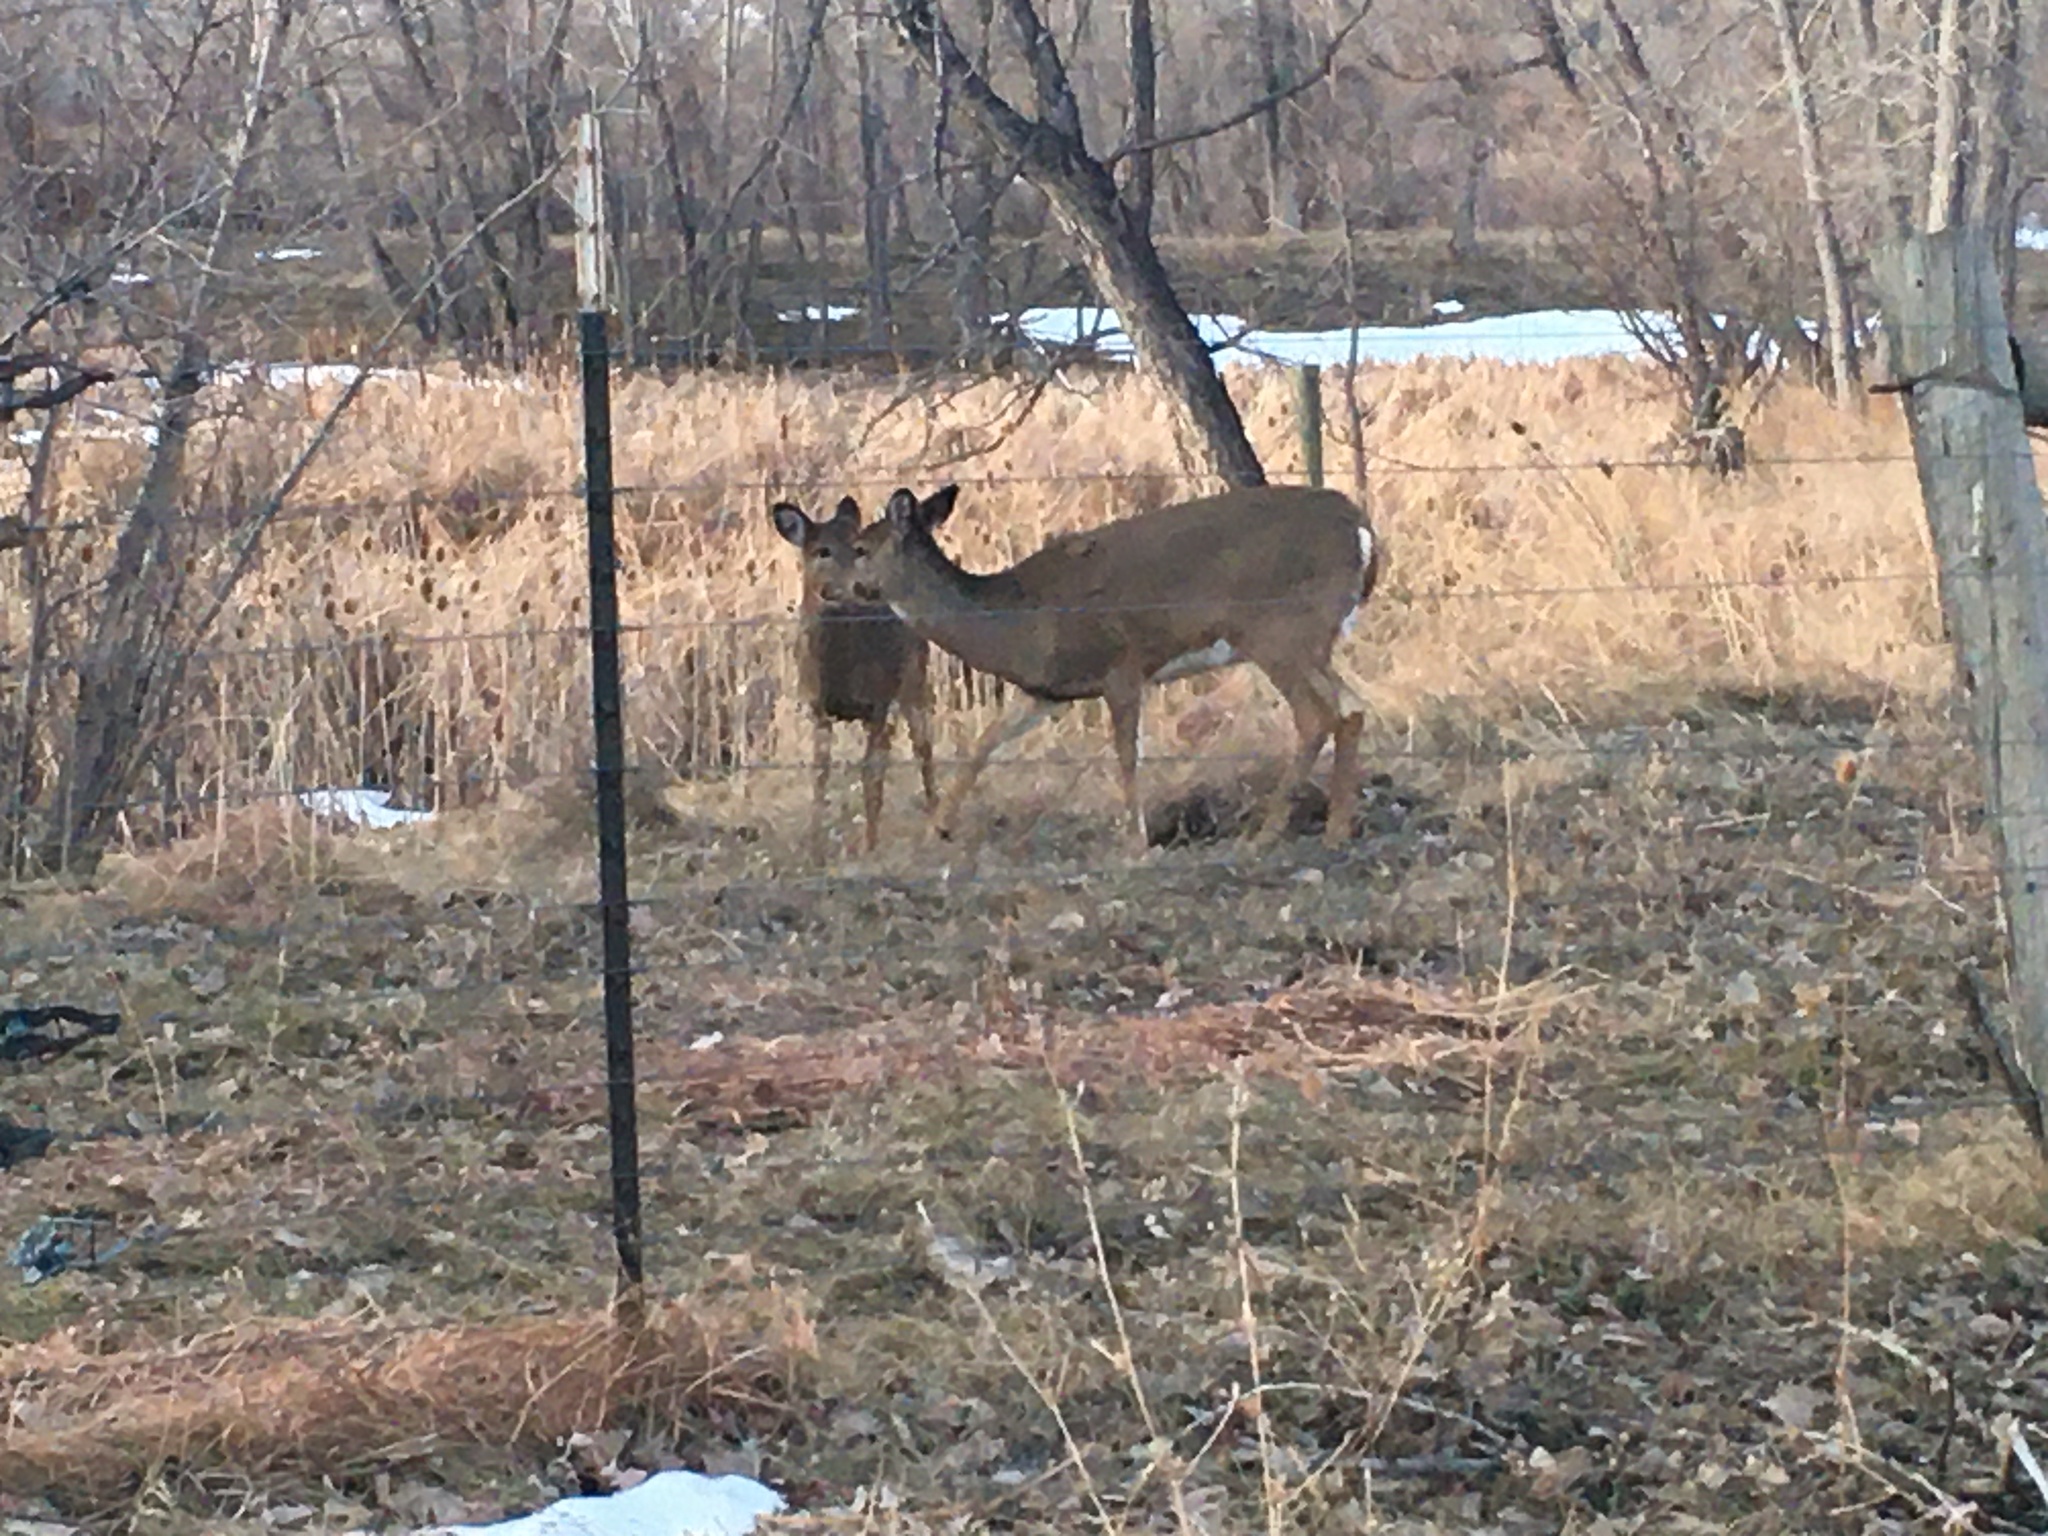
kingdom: Animalia
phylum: Chordata
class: Mammalia
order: Artiodactyla
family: Cervidae
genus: Odocoileus
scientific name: Odocoileus virginianus
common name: White-tailed deer
